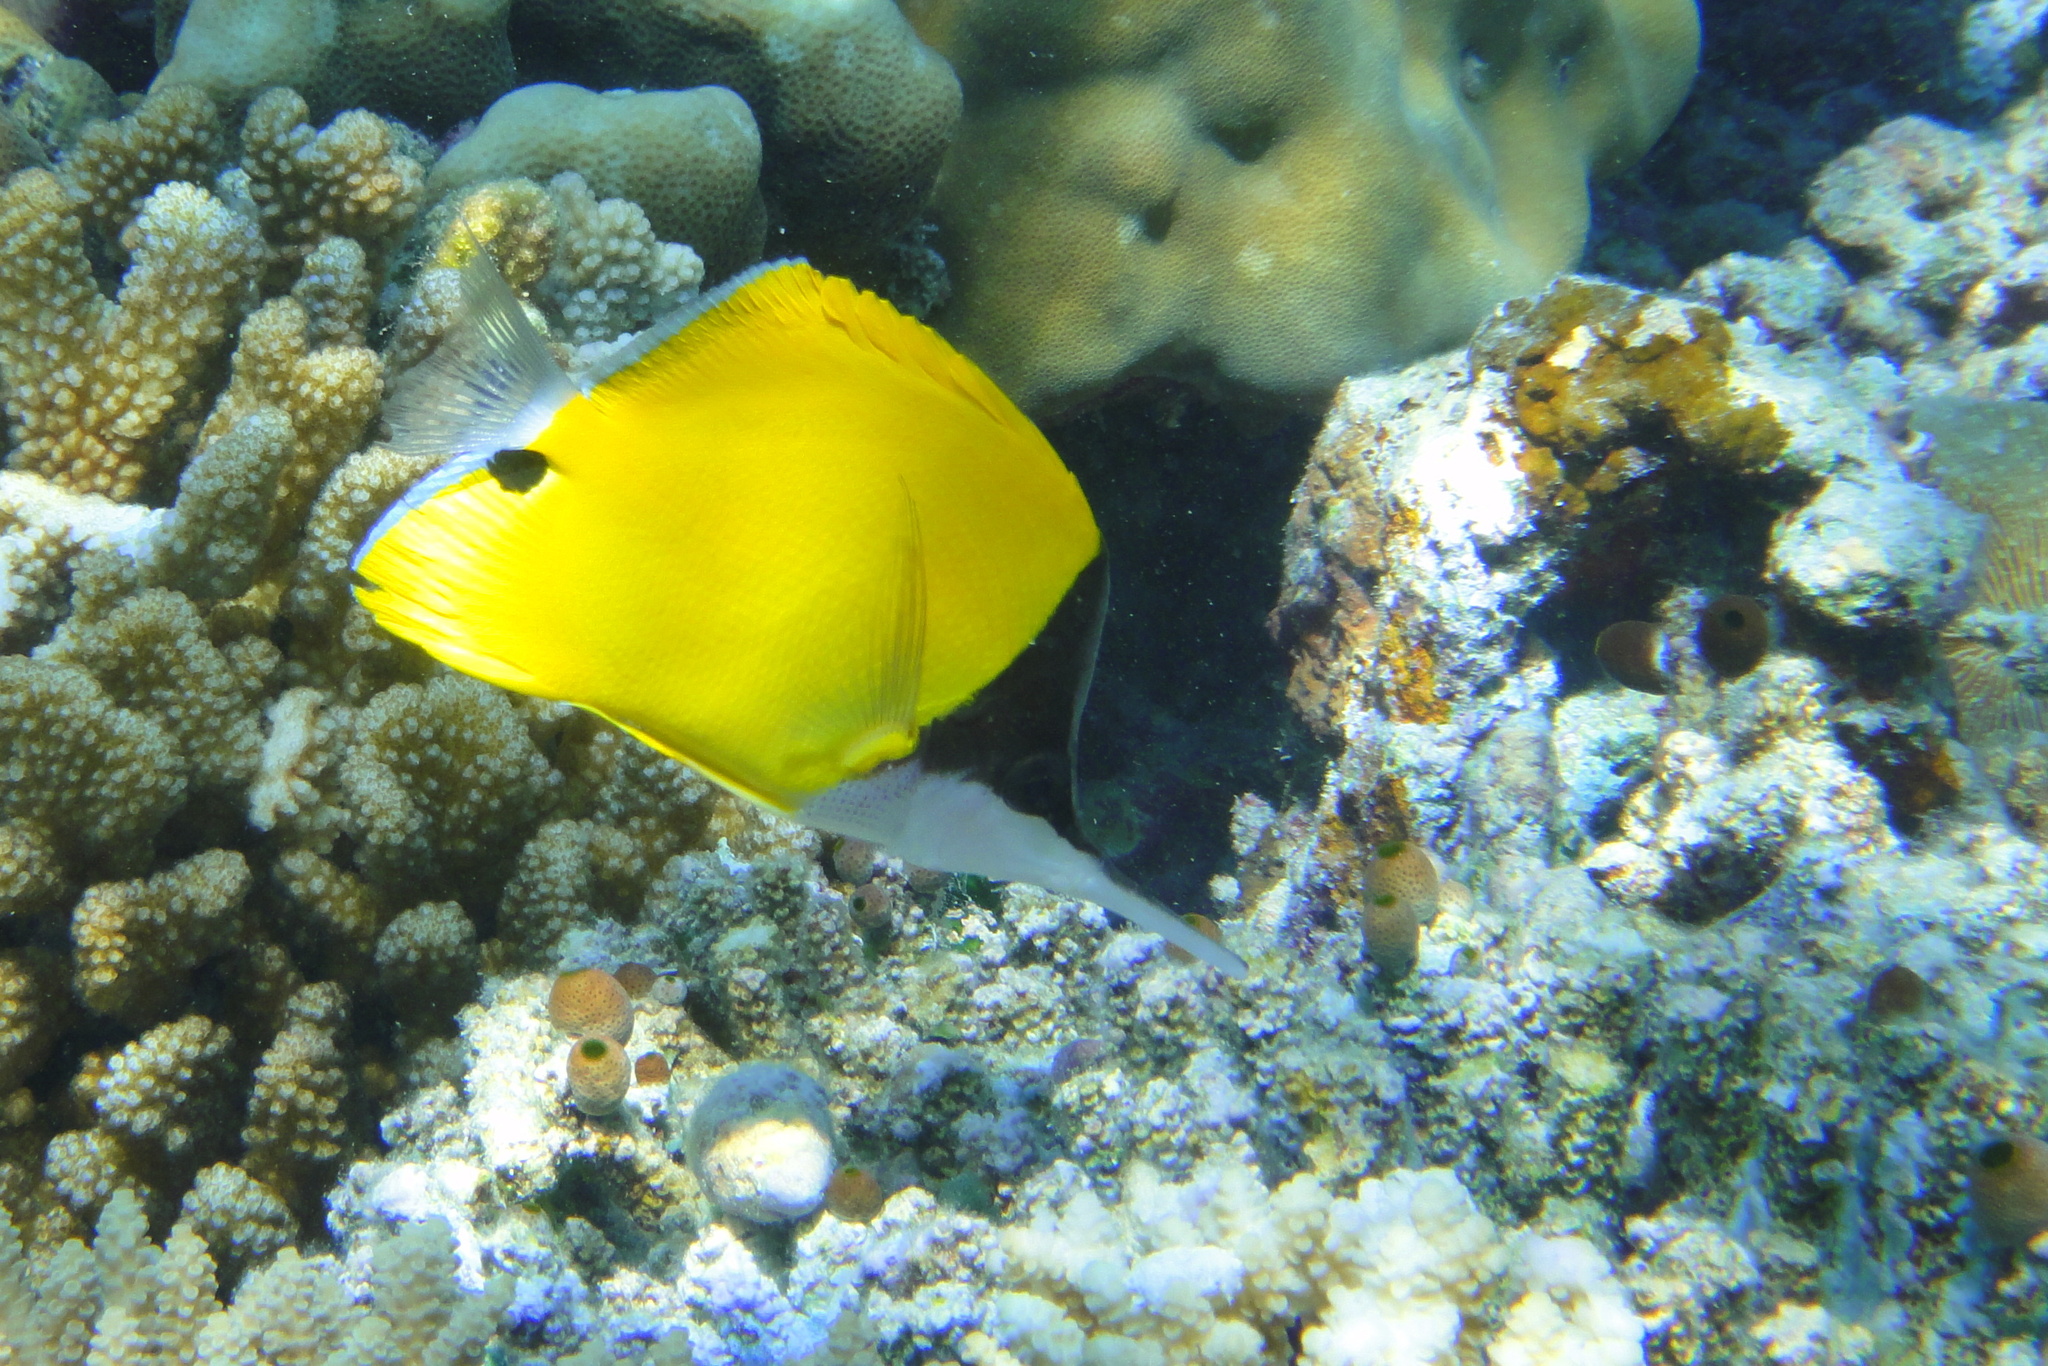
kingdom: Animalia
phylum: Chordata
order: Perciformes
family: Chaetodontidae
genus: Forcipiger
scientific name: Forcipiger flavissimus
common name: Forcepsfish
